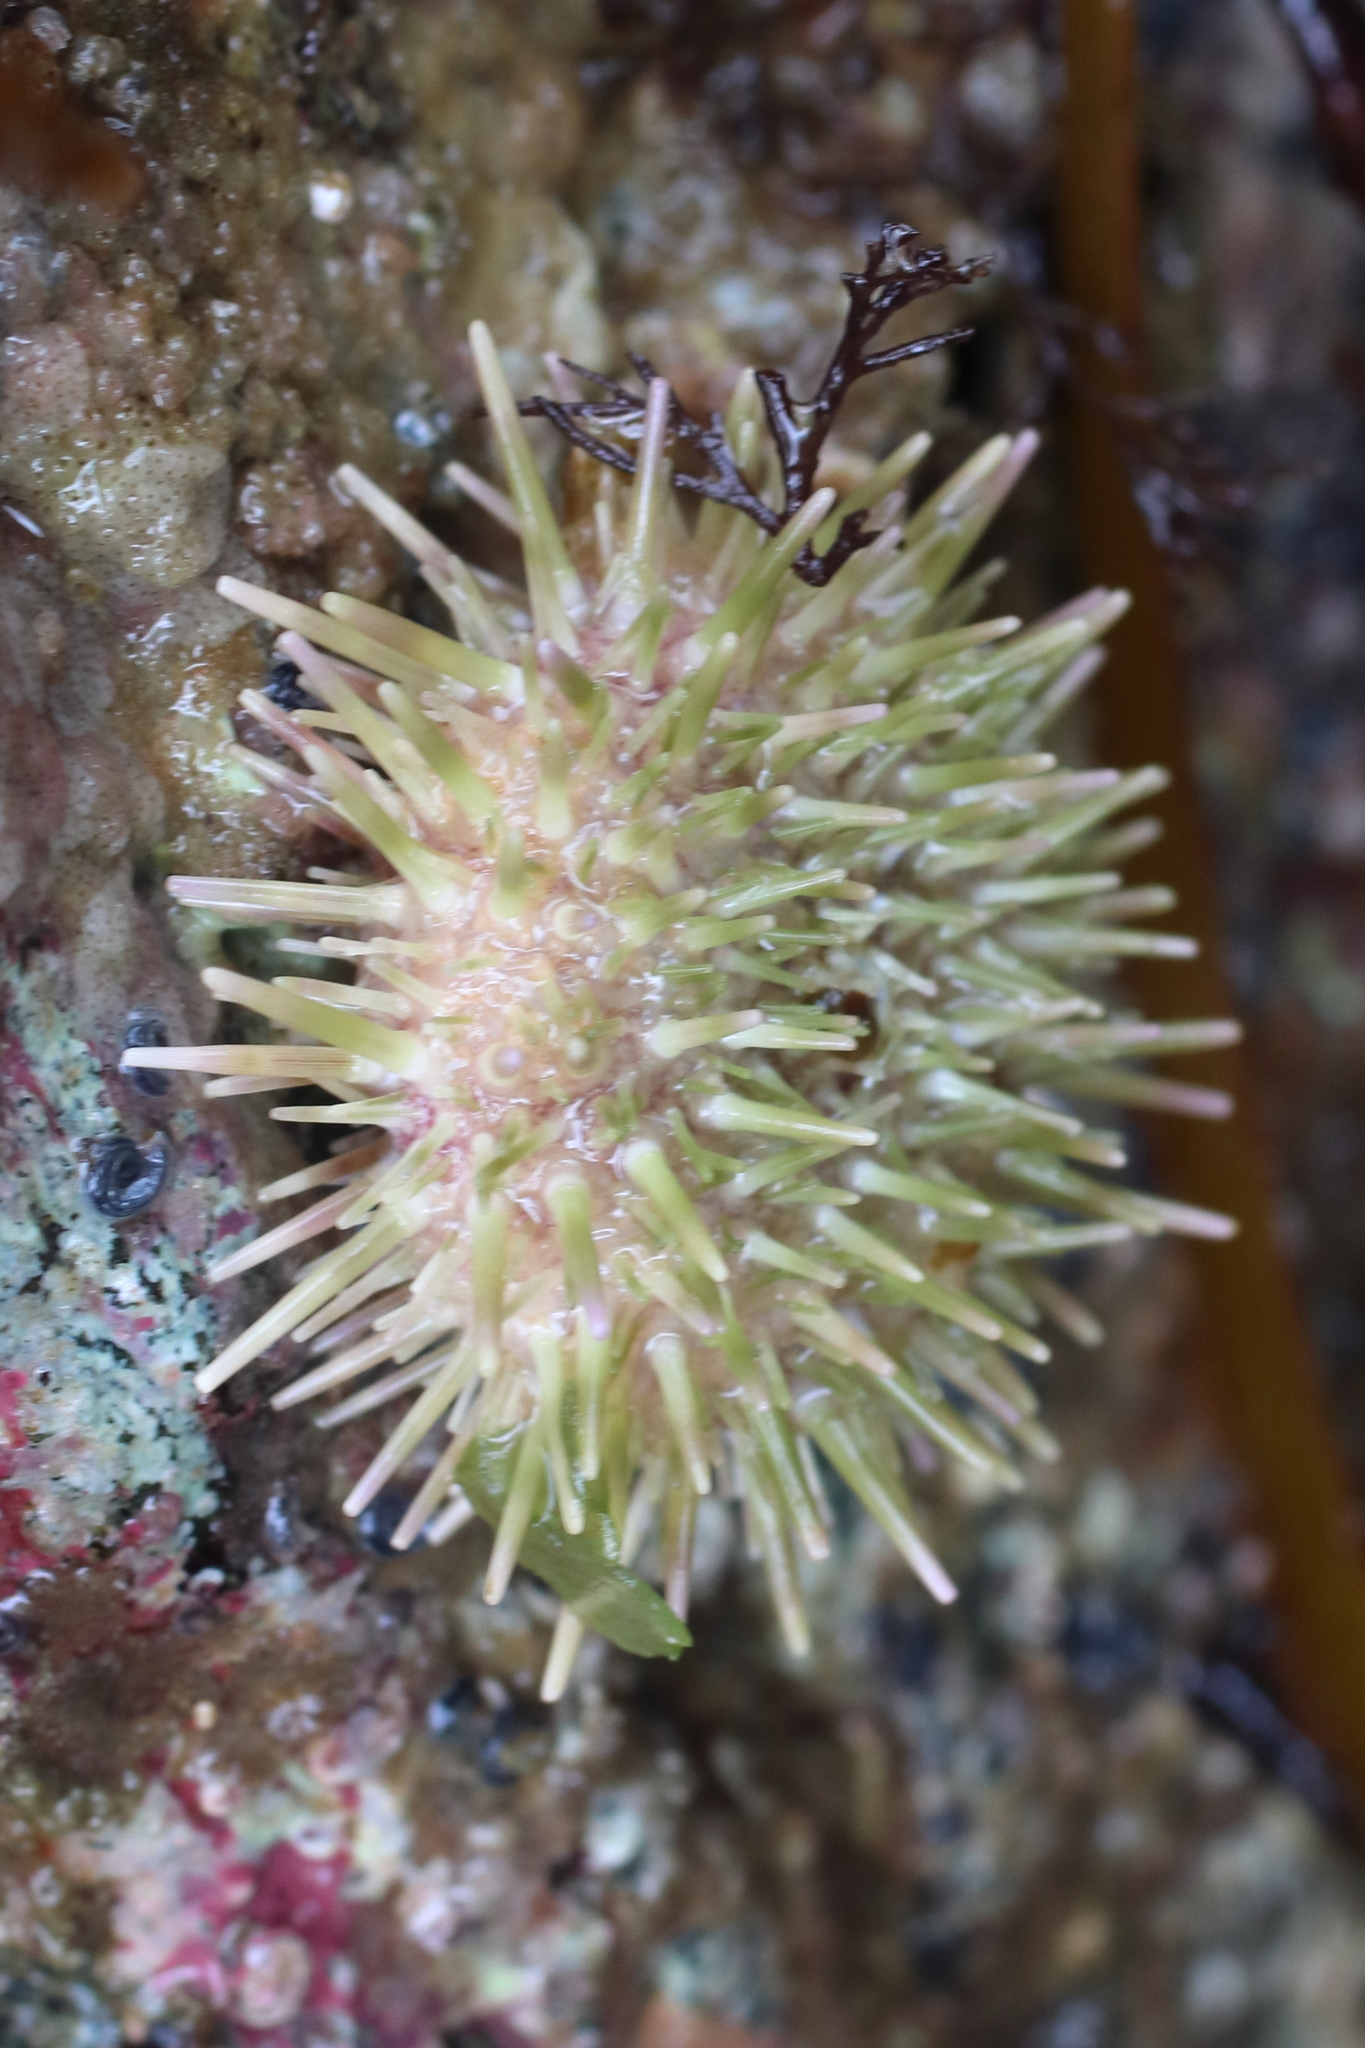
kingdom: Animalia
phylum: Echinodermata
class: Echinoidea
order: Camarodonta
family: Strongylocentrotidae
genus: Strongylocentrotus
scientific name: Strongylocentrotus droebachiensis
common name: Northern sea urchin
